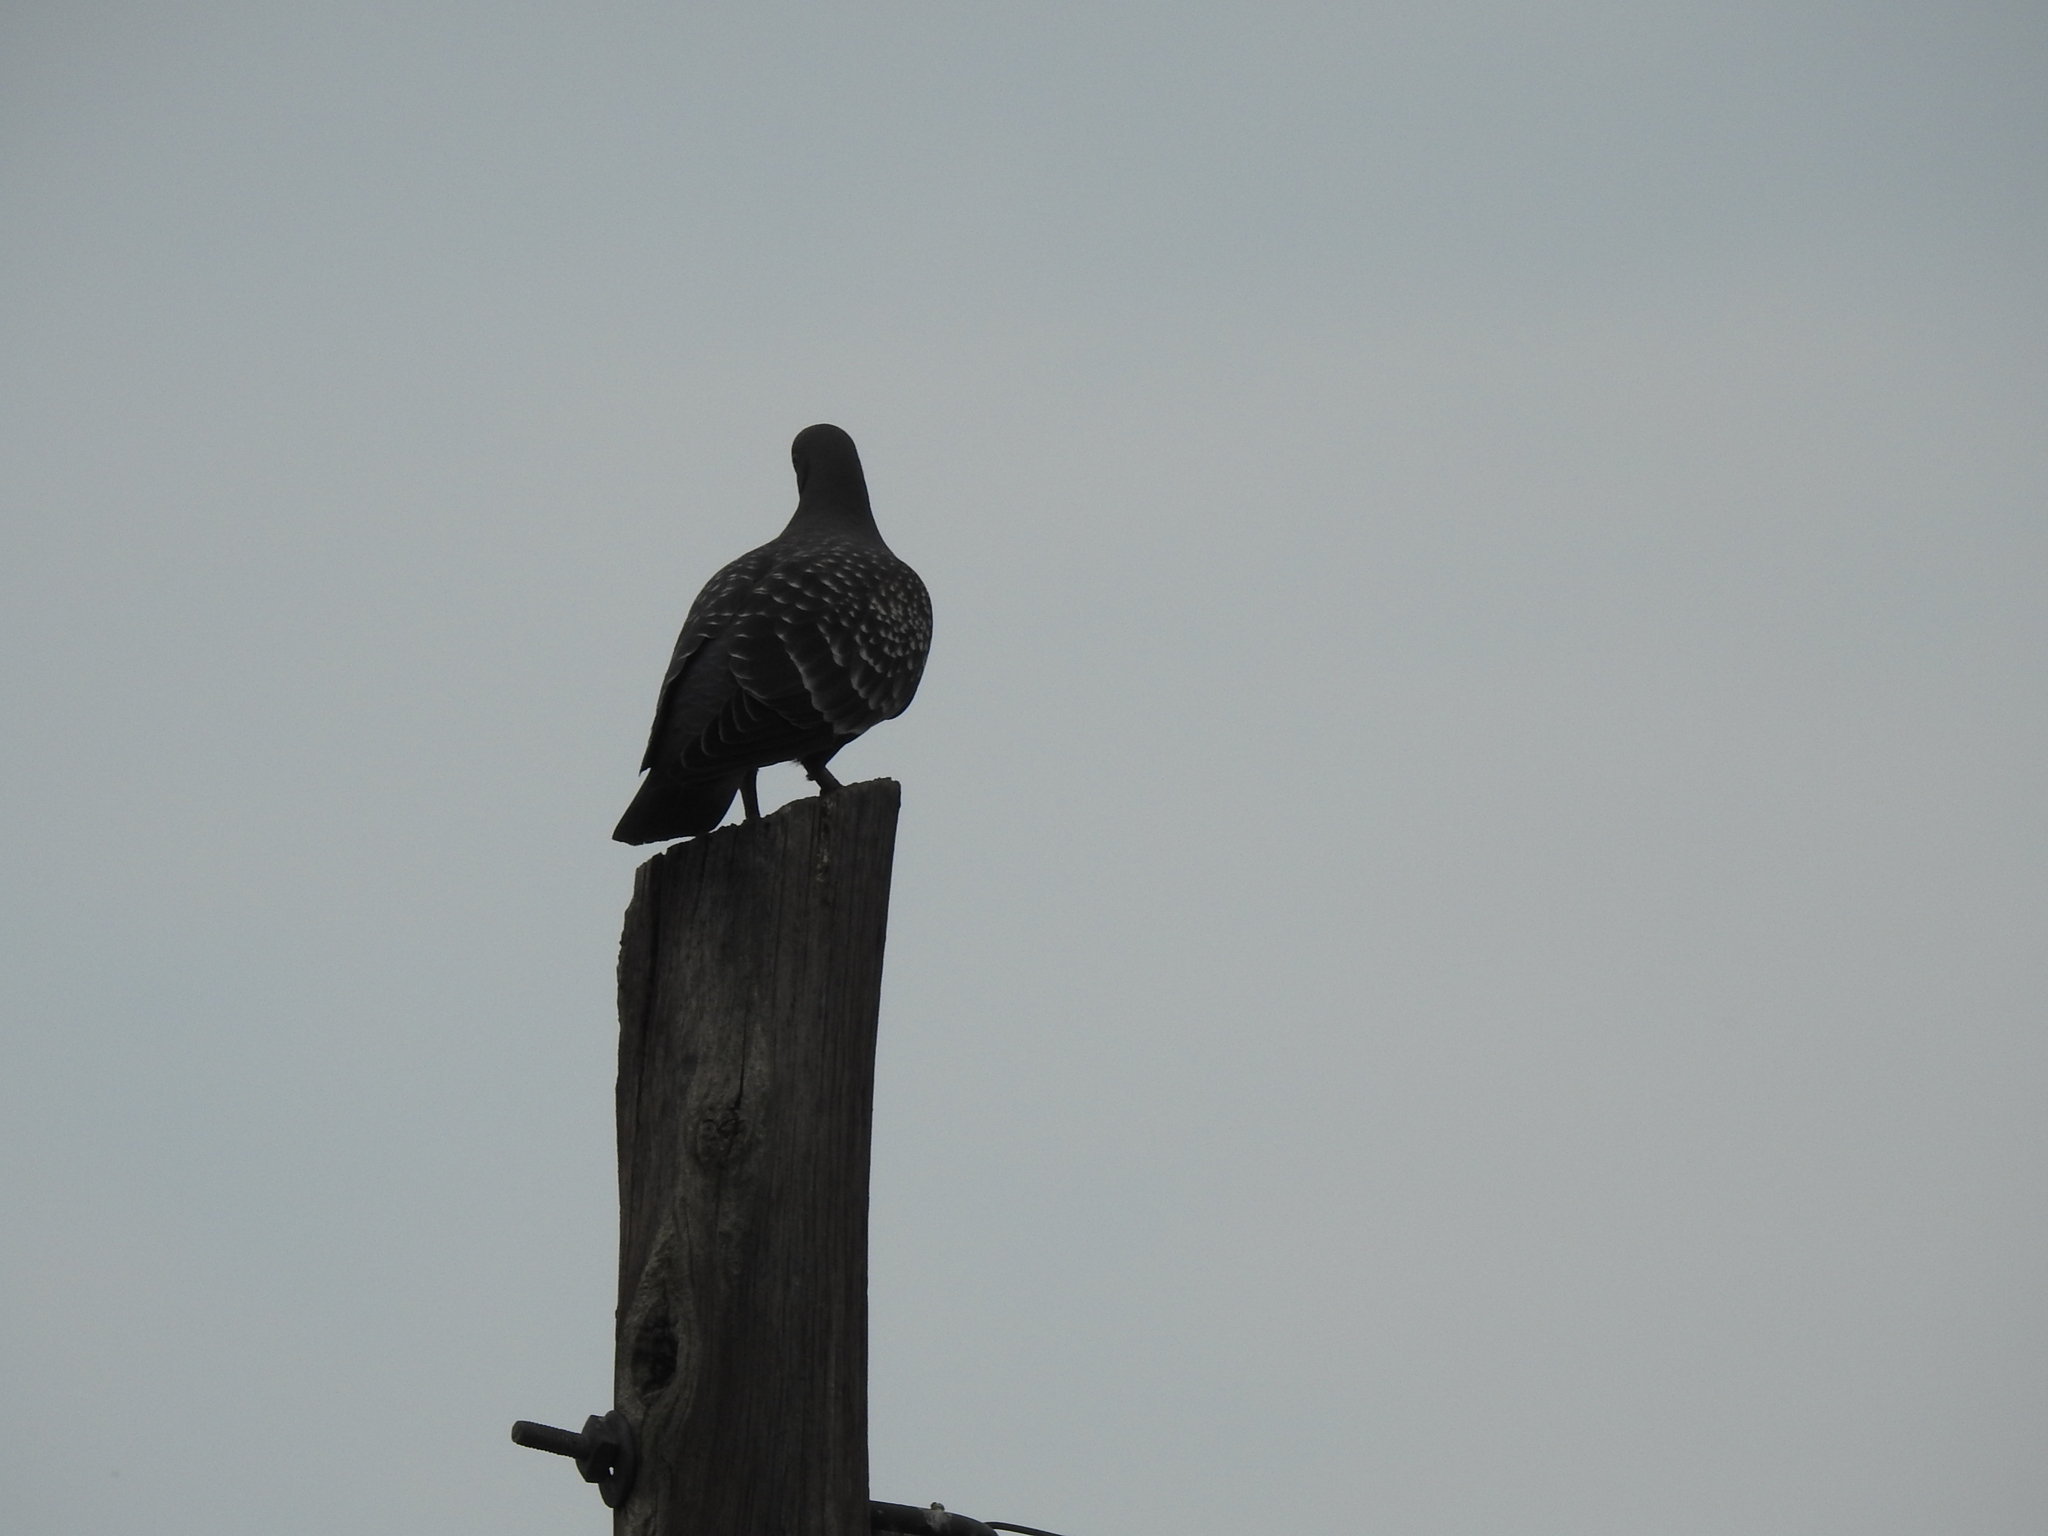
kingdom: Animalia
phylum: Chordata
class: Aves
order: Columbiformes
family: Columbidae
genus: Patagioenas
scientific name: Patagioenas maculosa
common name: Spot-winged pigeon
